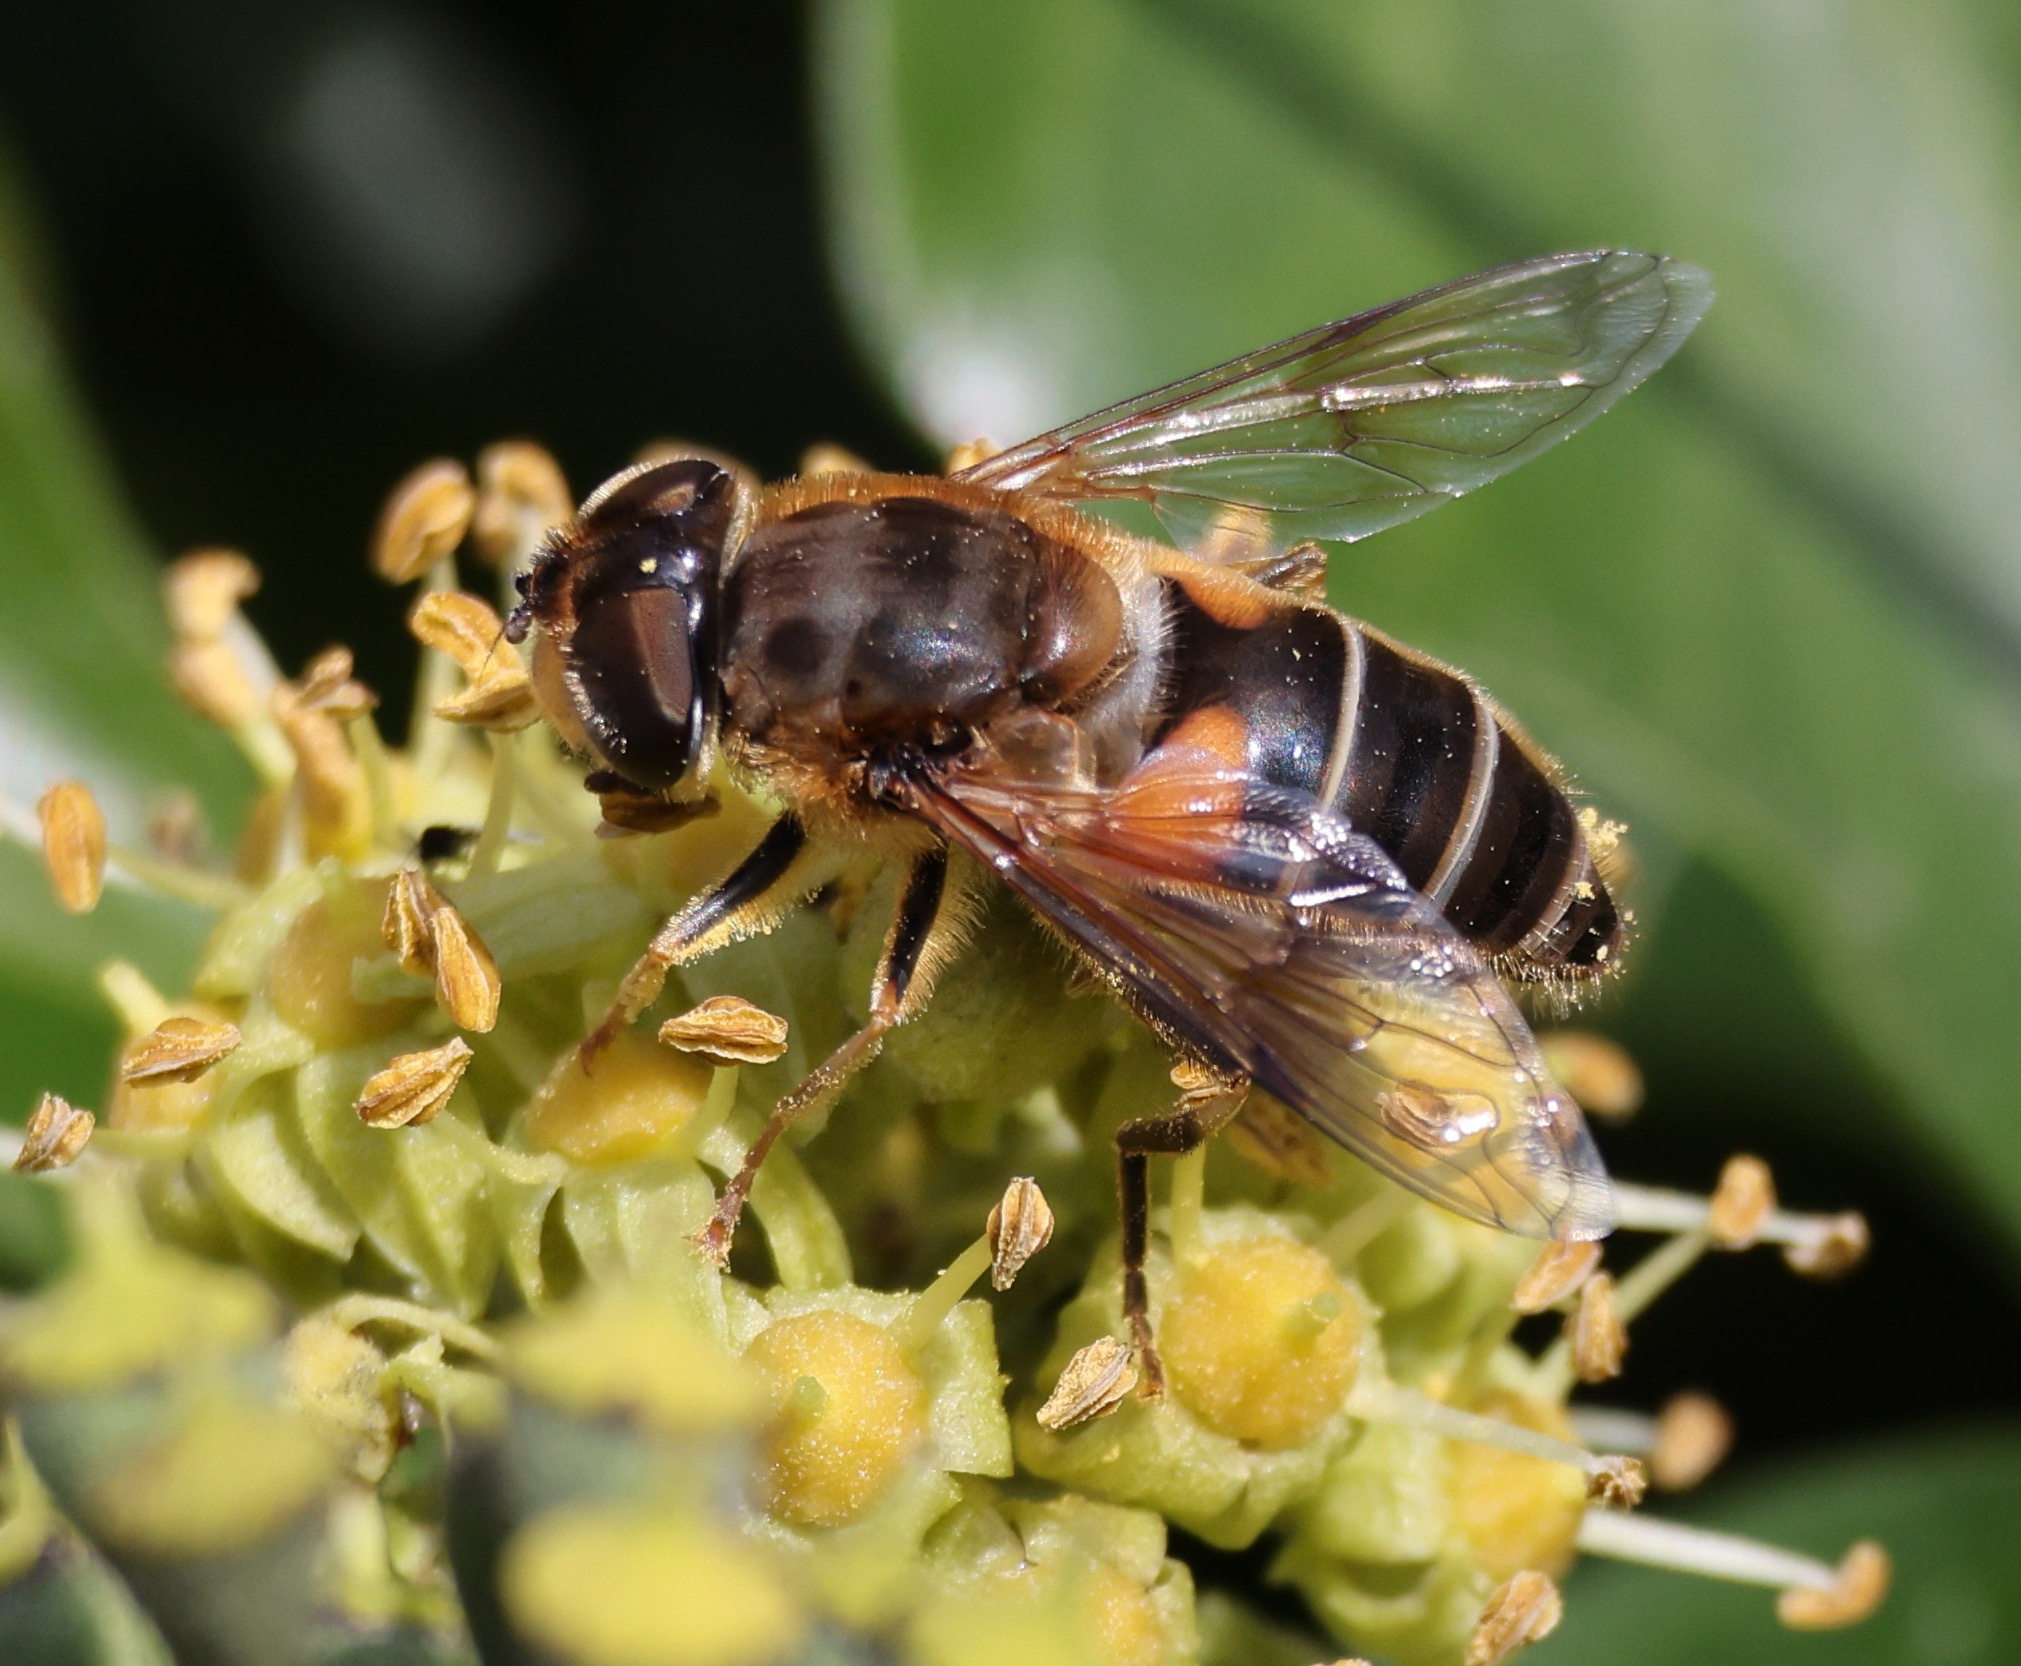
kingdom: Animalia
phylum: Arthropoda
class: Insecta
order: Diptera
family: Syrphidae
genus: Eristalis
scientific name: Eristalis pertinax
